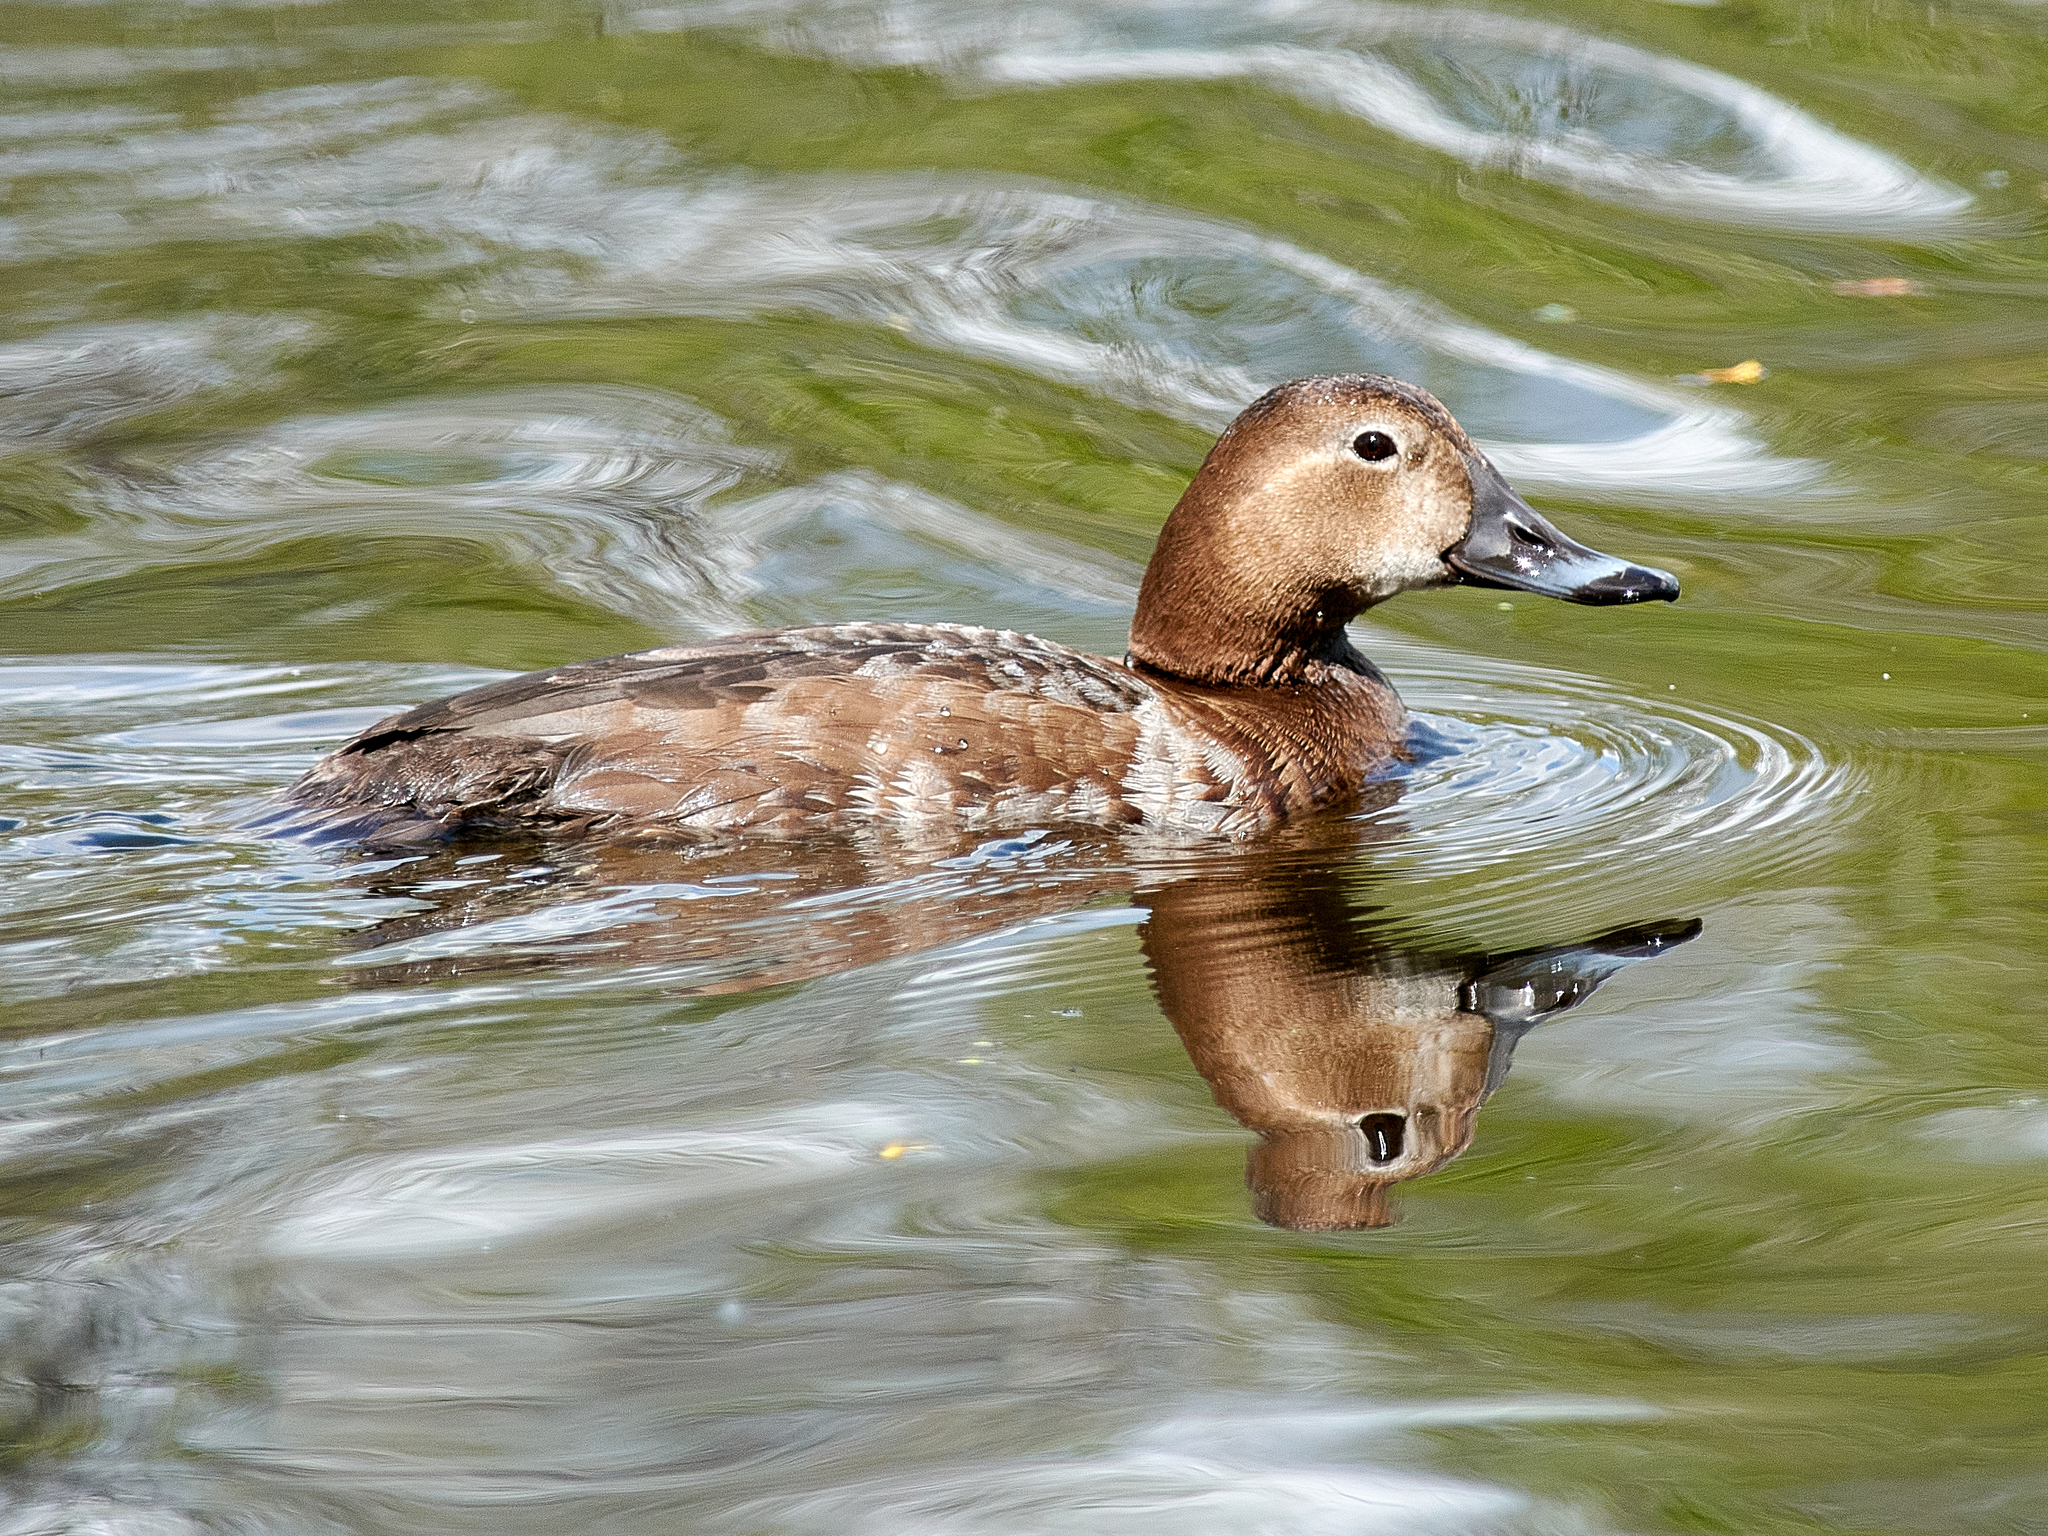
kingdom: Animalia
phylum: Chordata
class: Aves
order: Anseriformes
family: Anatidae
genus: Aythya
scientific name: Aythya ferina
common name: Common pochard
